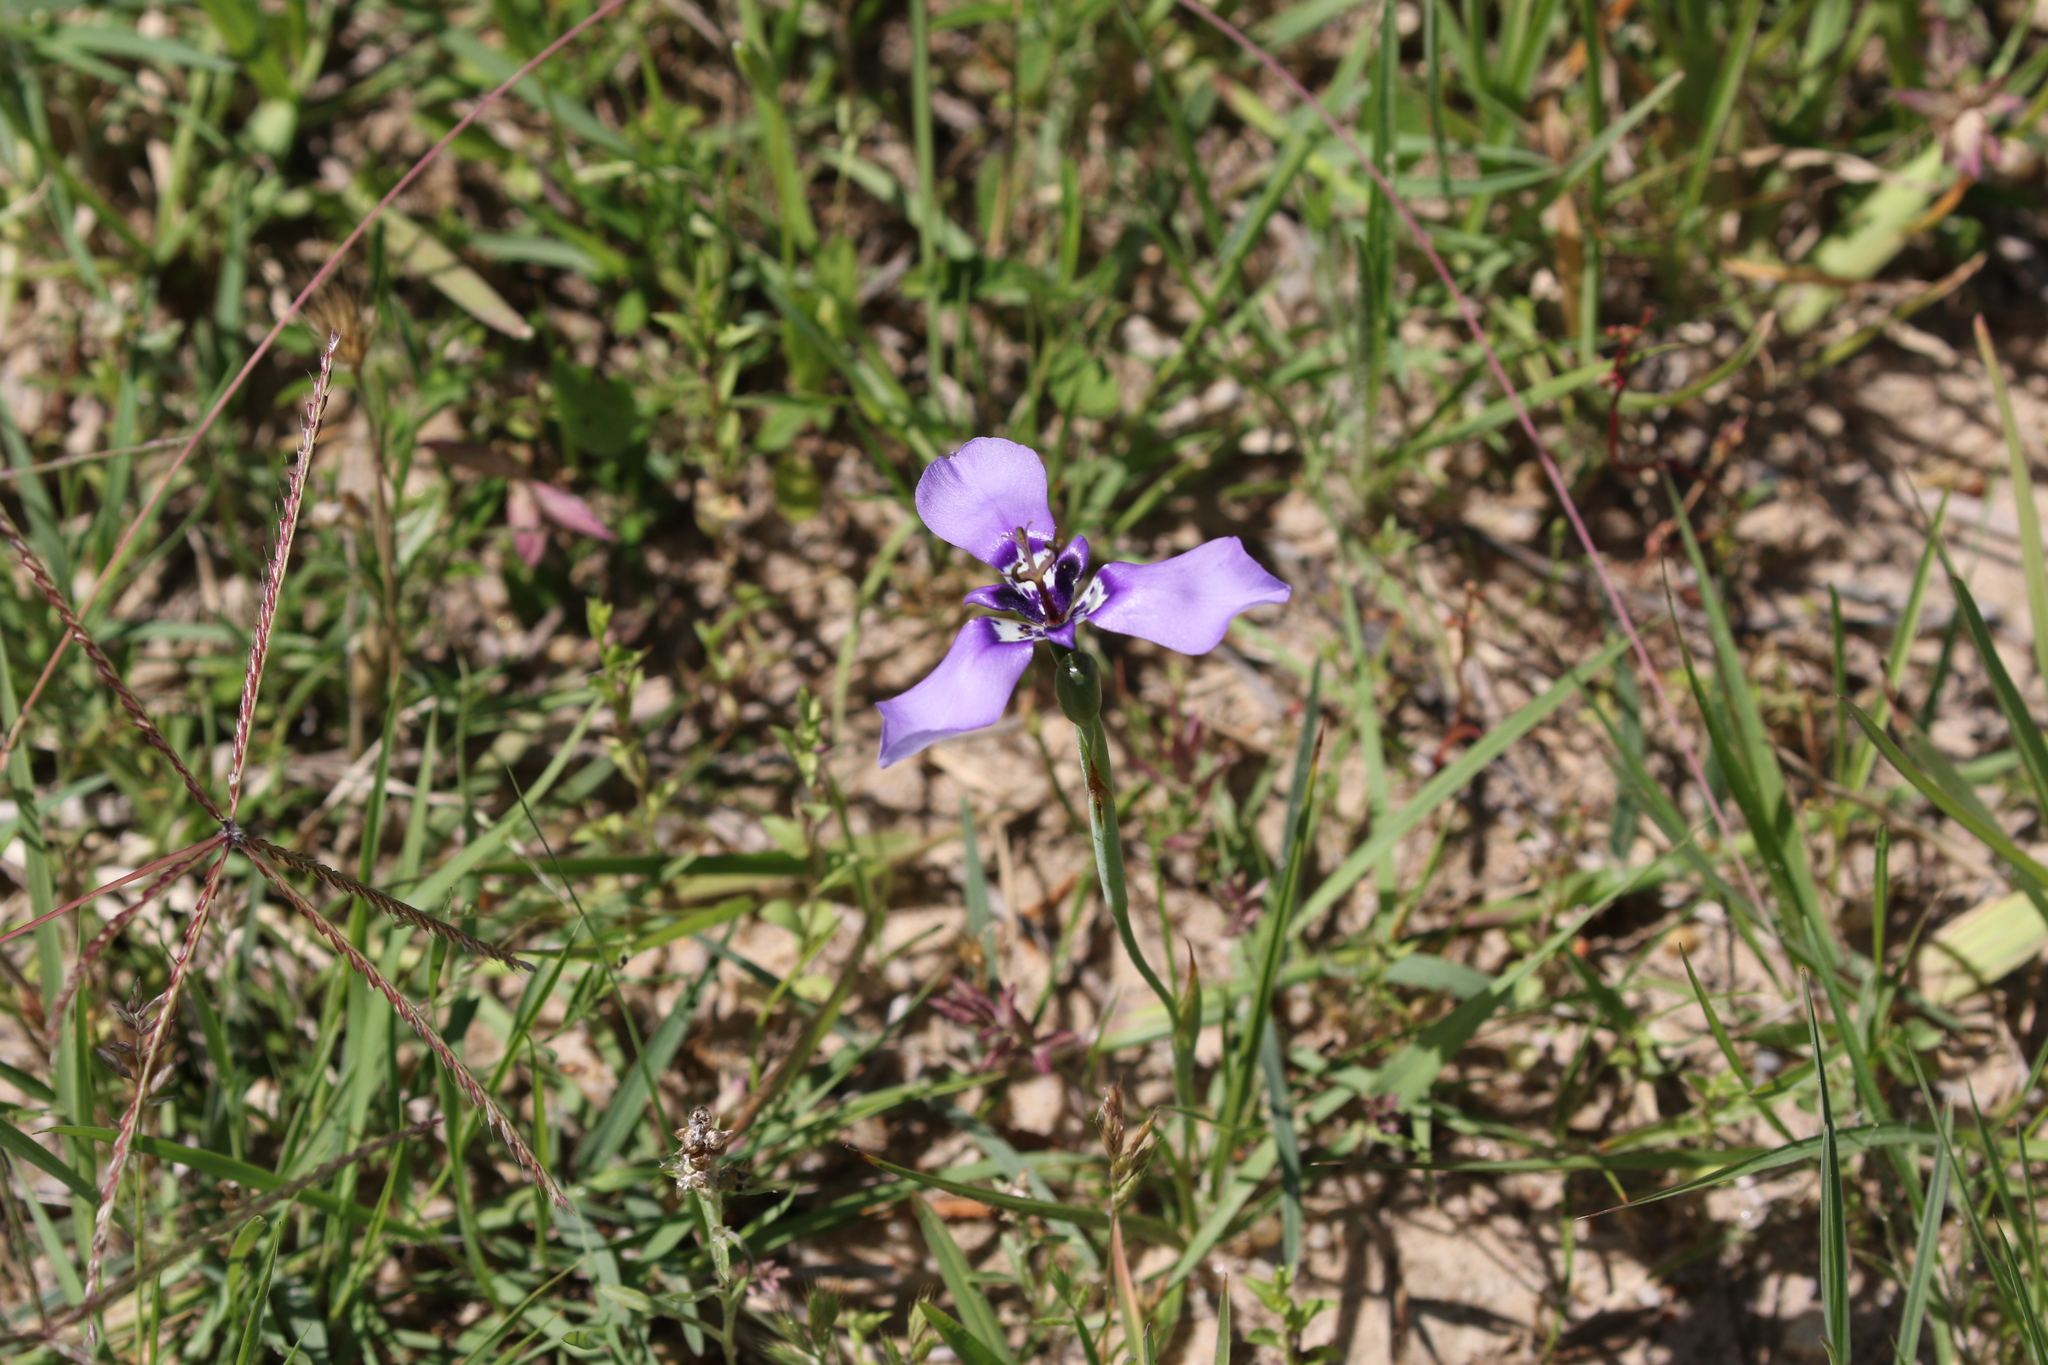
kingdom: Plantae
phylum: Tracheophyta
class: Liliopsida
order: Asparagales
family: Iridaceae
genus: Herbertia
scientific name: Herbertia lahue
